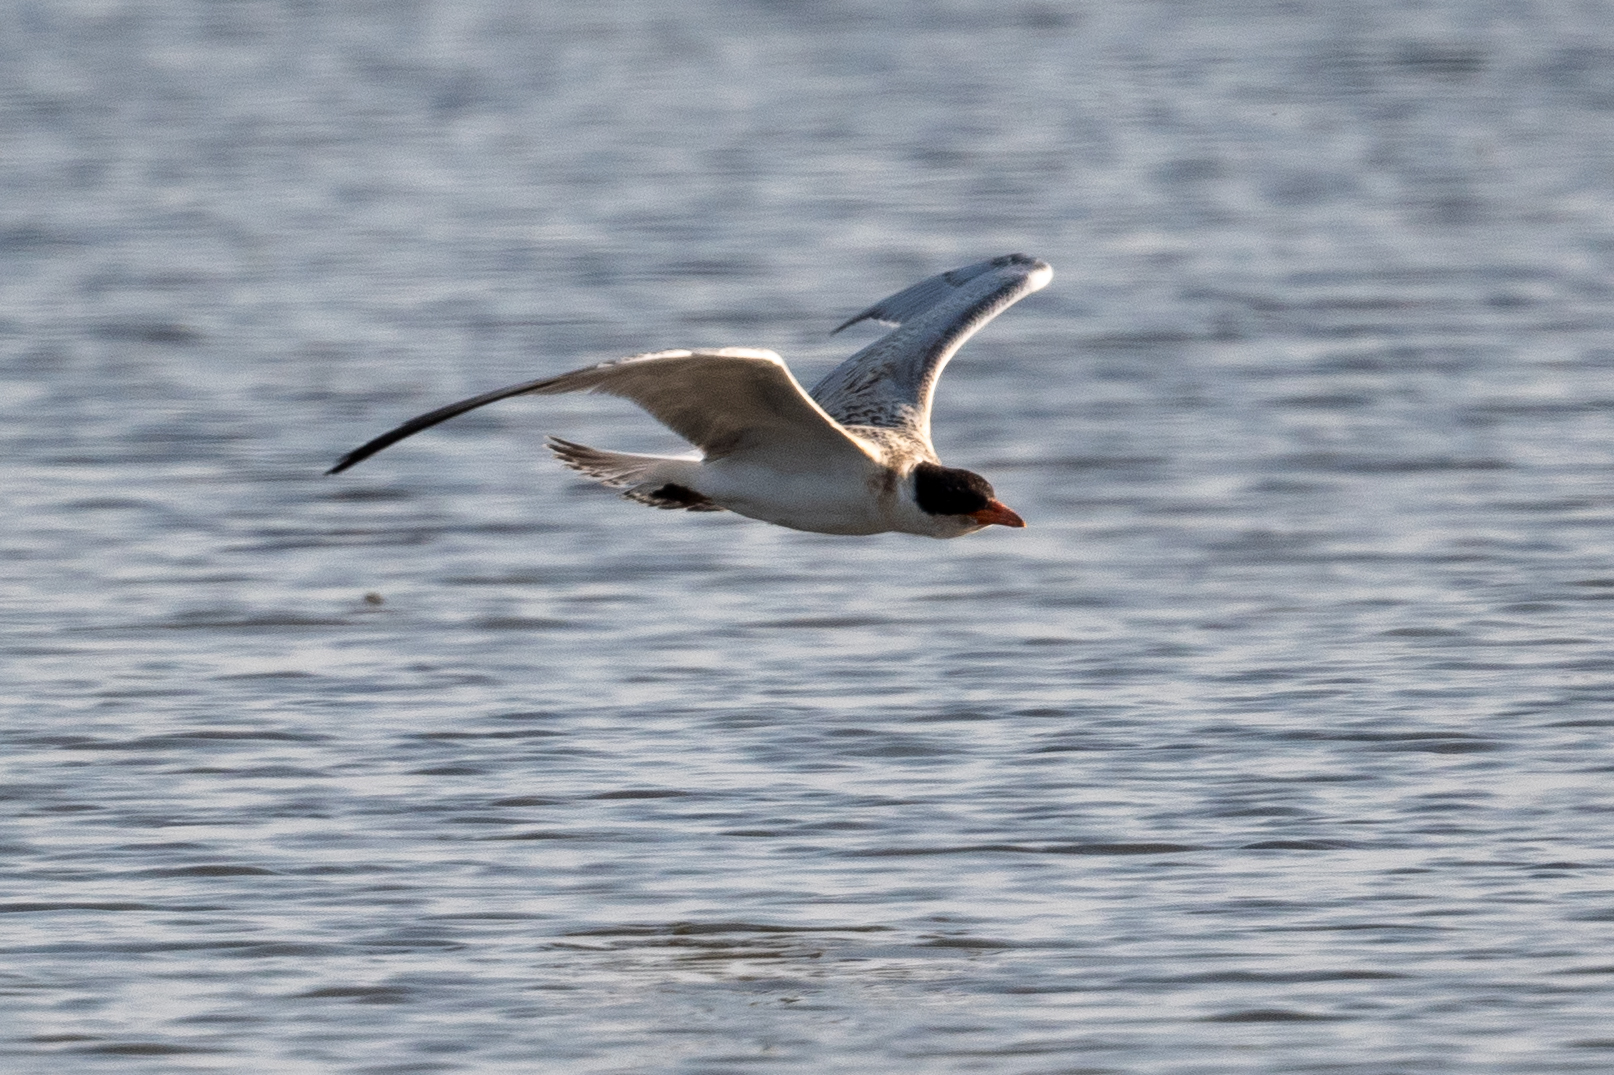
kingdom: Animalia
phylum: Chordata
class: Aves
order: Charadriiformes
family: Laridae
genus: Hydroprogne
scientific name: Hydroprogne caspia
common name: Caspian tern
